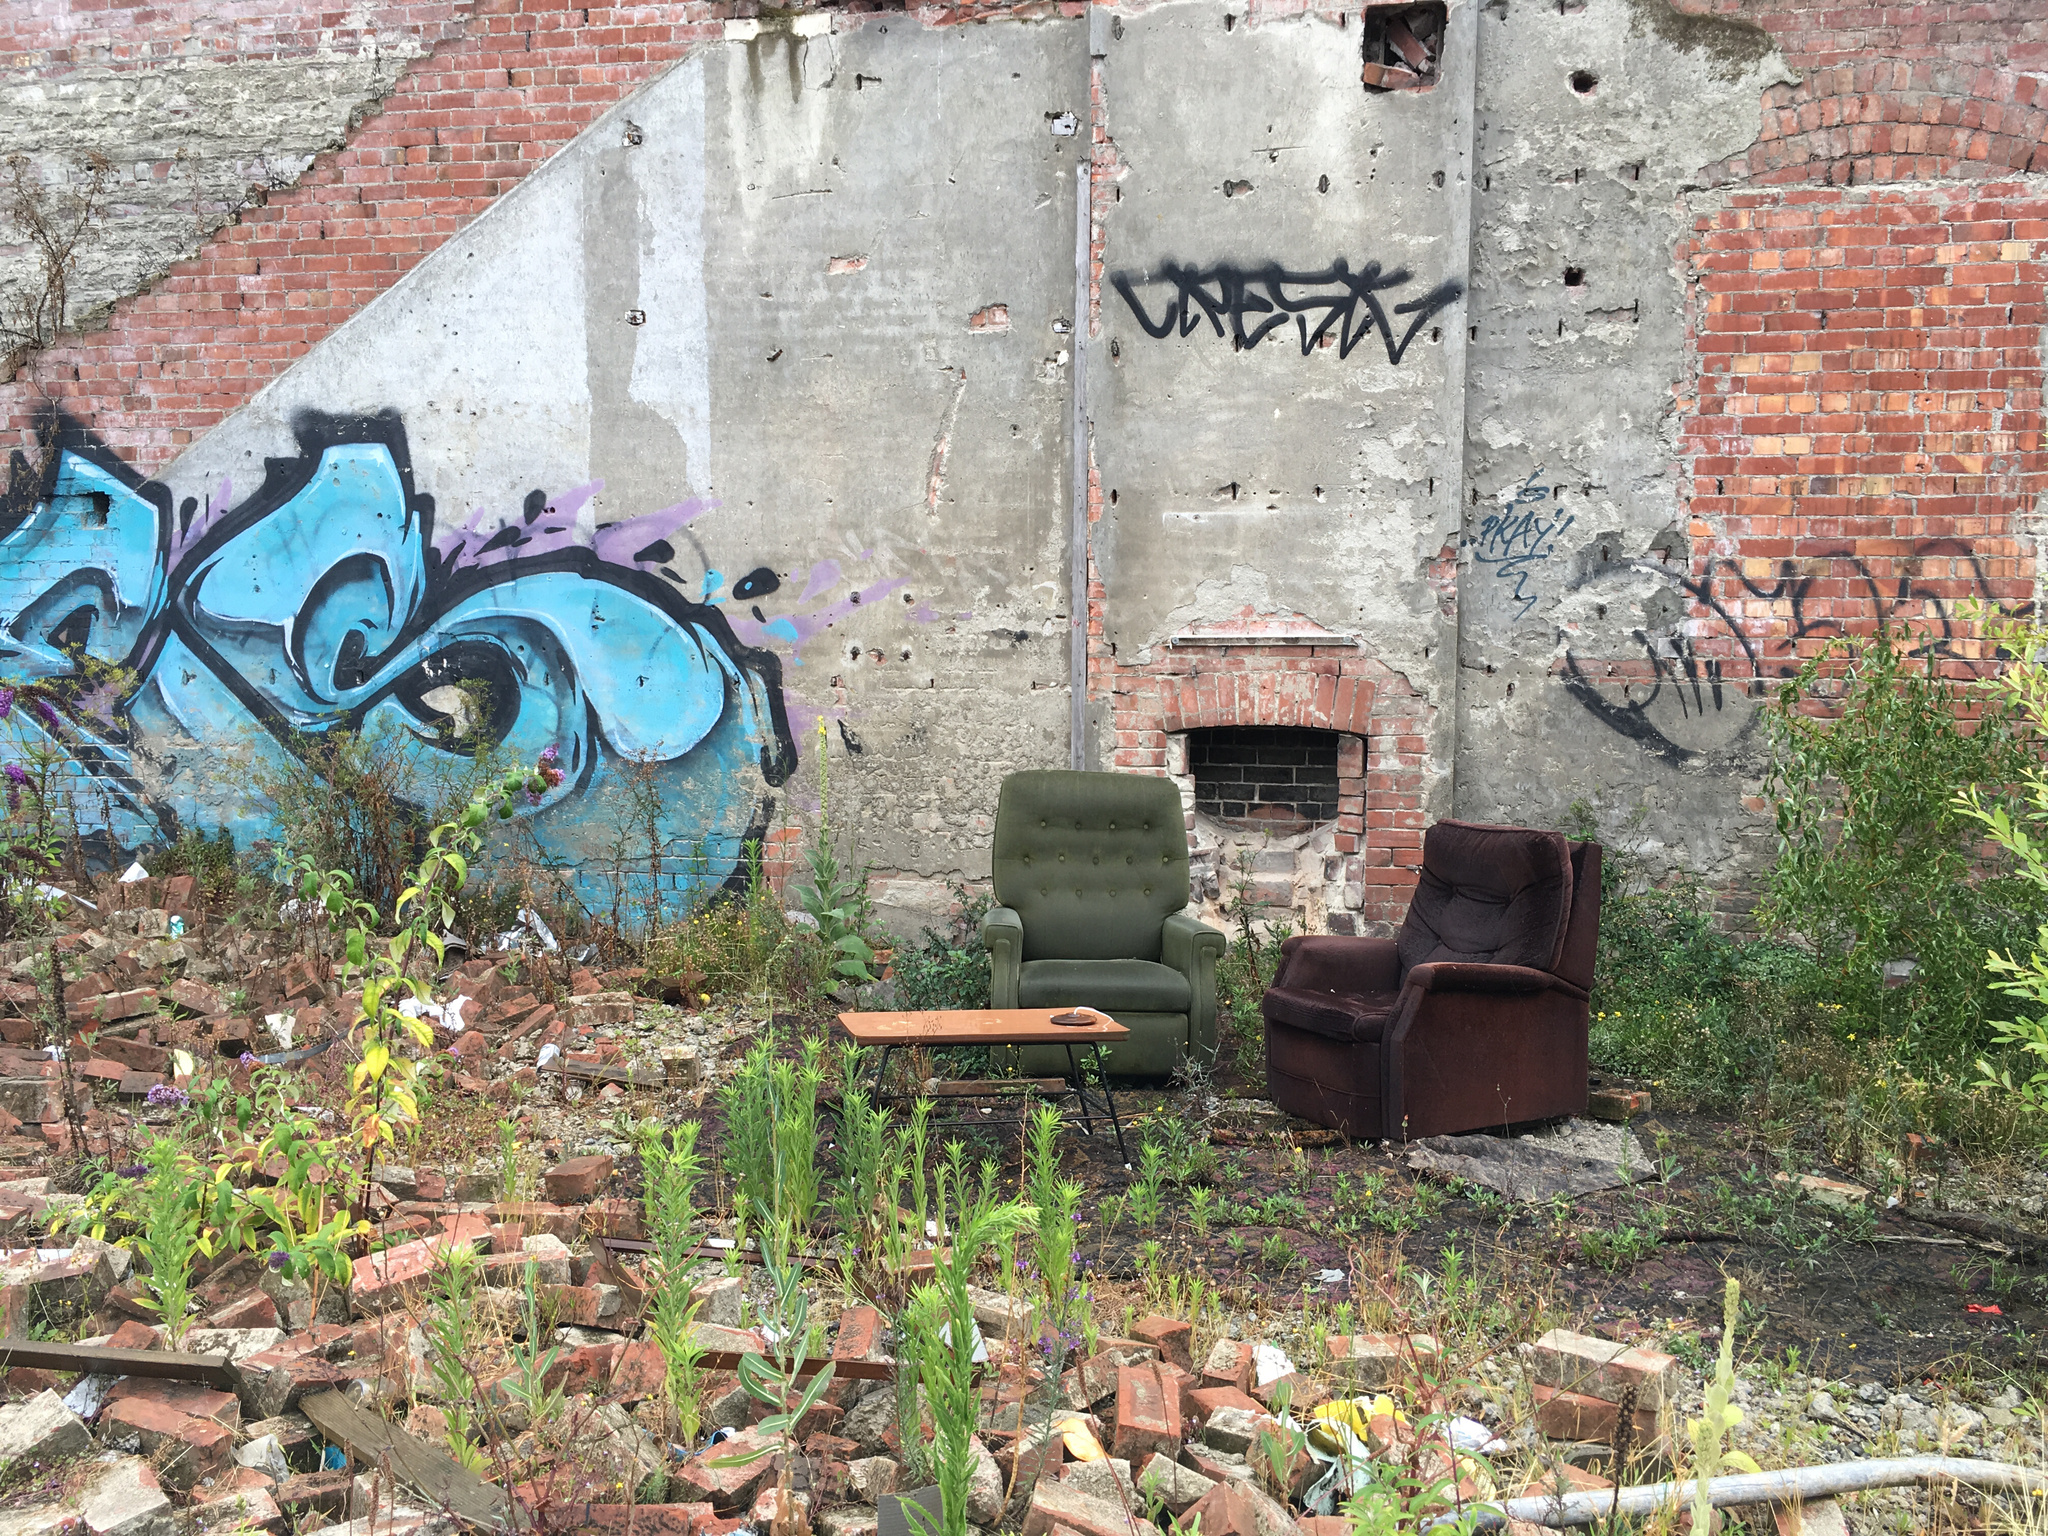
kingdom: Plantae
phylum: Tracheophyta
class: Magnoliopsida
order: Lamiales
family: Scrophulariaceae
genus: Verbascum
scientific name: Verbascum thapsus
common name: Common mullein
